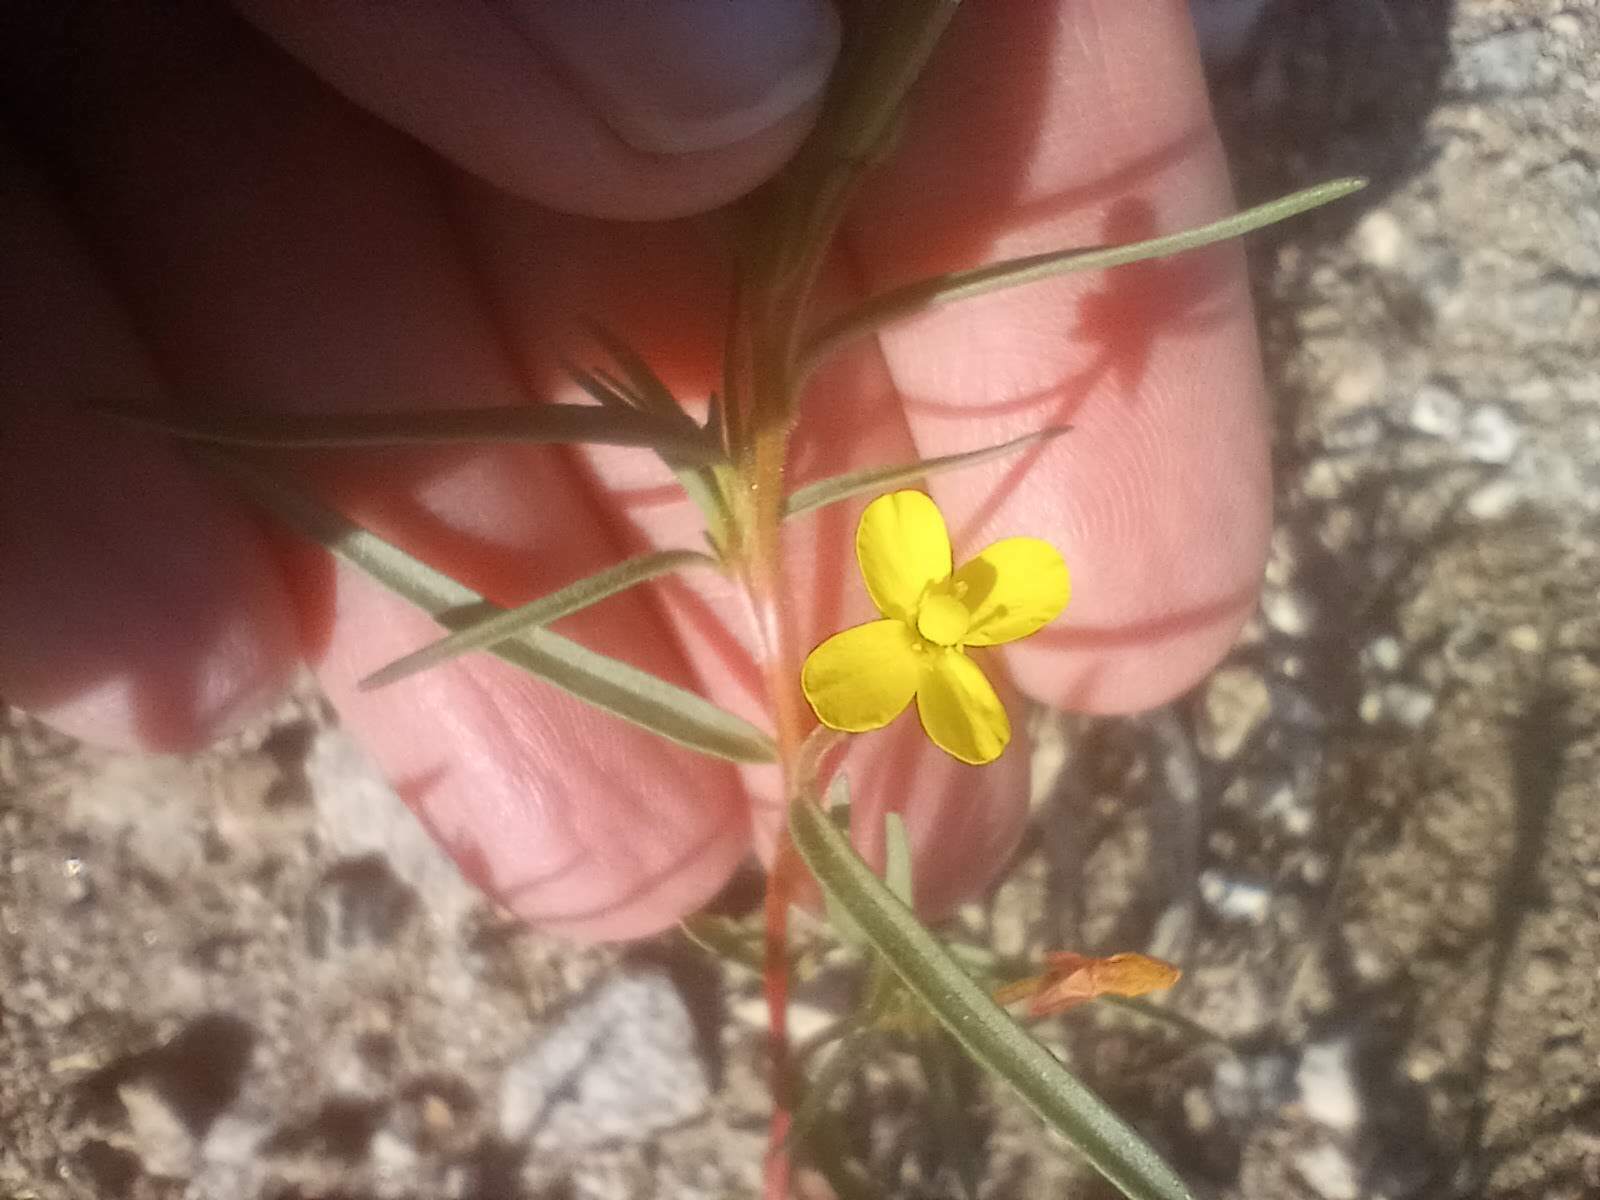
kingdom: Plantae
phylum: Tracheophyta
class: Magnoliopsida
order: Myrtales
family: Onagraceae
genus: Camissonia
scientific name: Camissonia strigulosa
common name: Contorted-primrose
